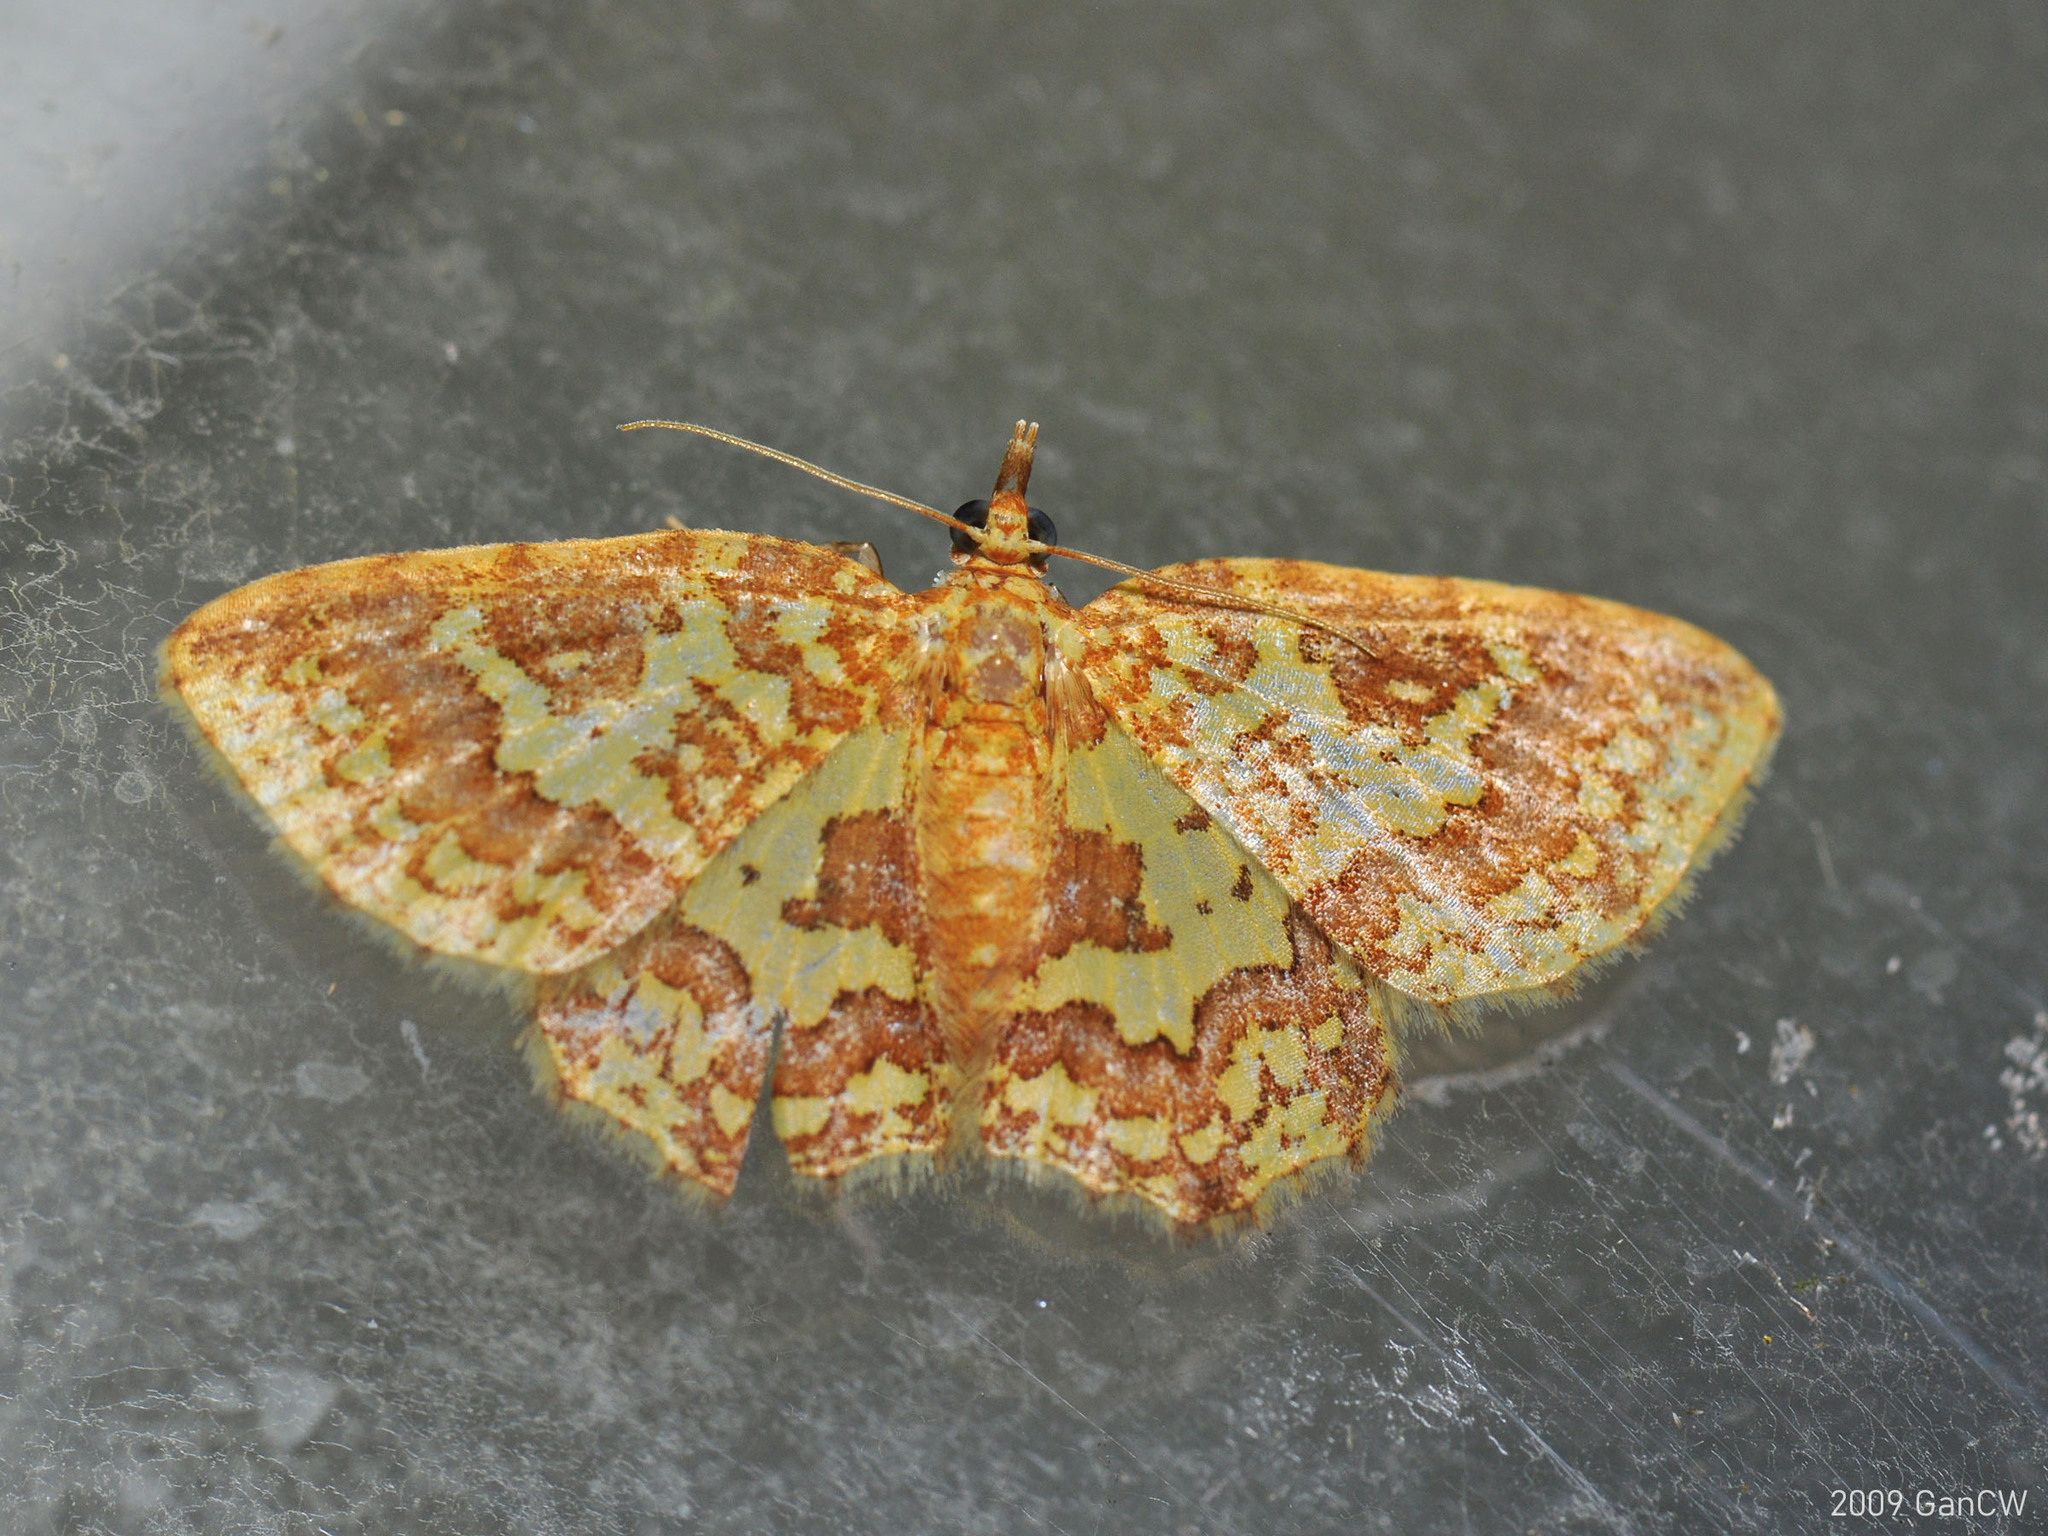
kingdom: Animalia
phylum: Arthropoda
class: Insecta
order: Lepidoptera
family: Geometridae
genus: Pseudopolynesia
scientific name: Pseudopolynesia amplificata
